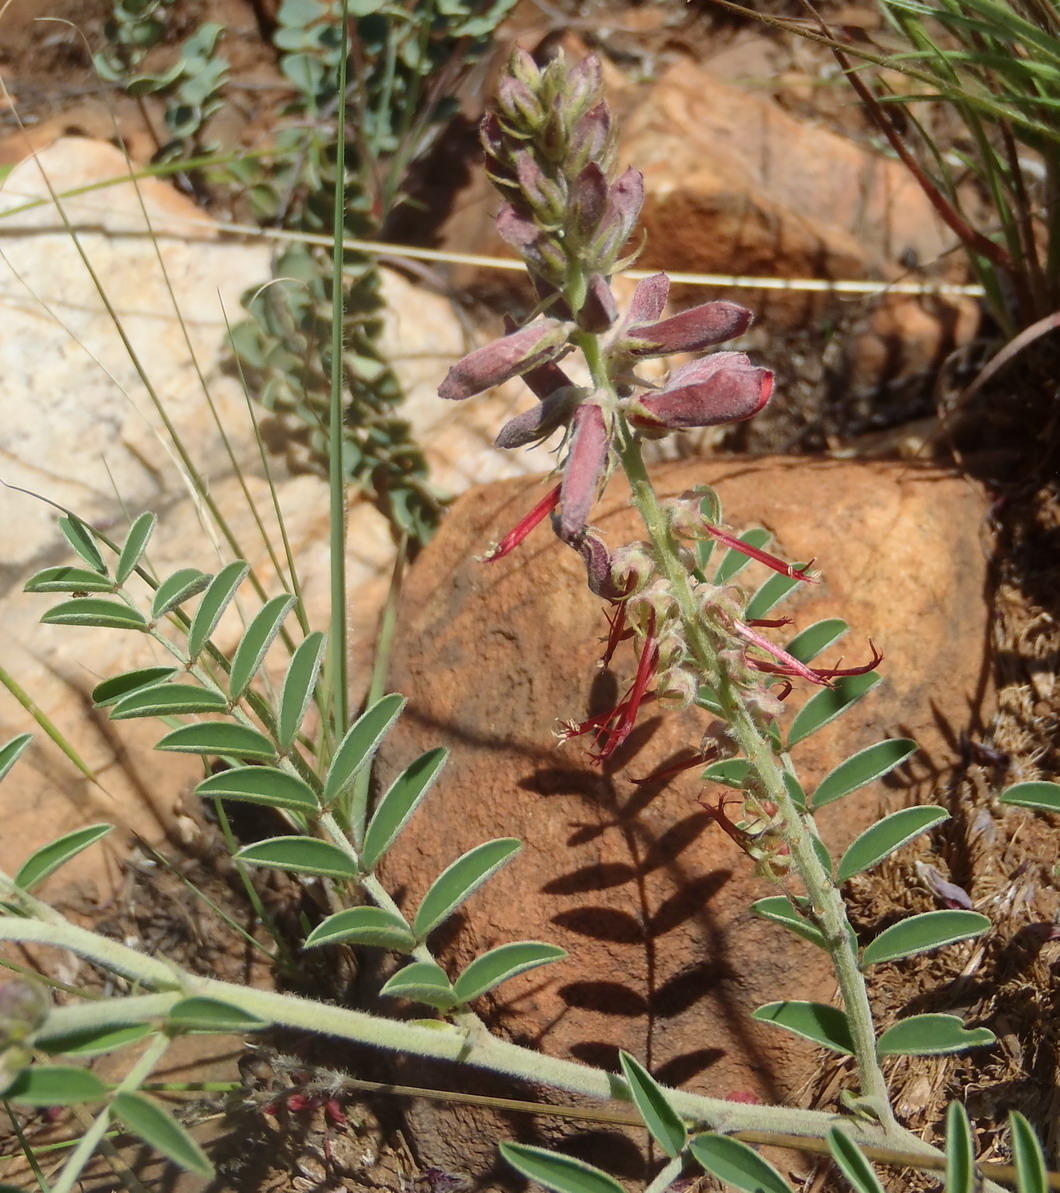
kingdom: Plantae
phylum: Tracheophyta
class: Magnoliopsida
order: Fabales
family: Fabaceae
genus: Indigofera
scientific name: Indigofera oxytropis
